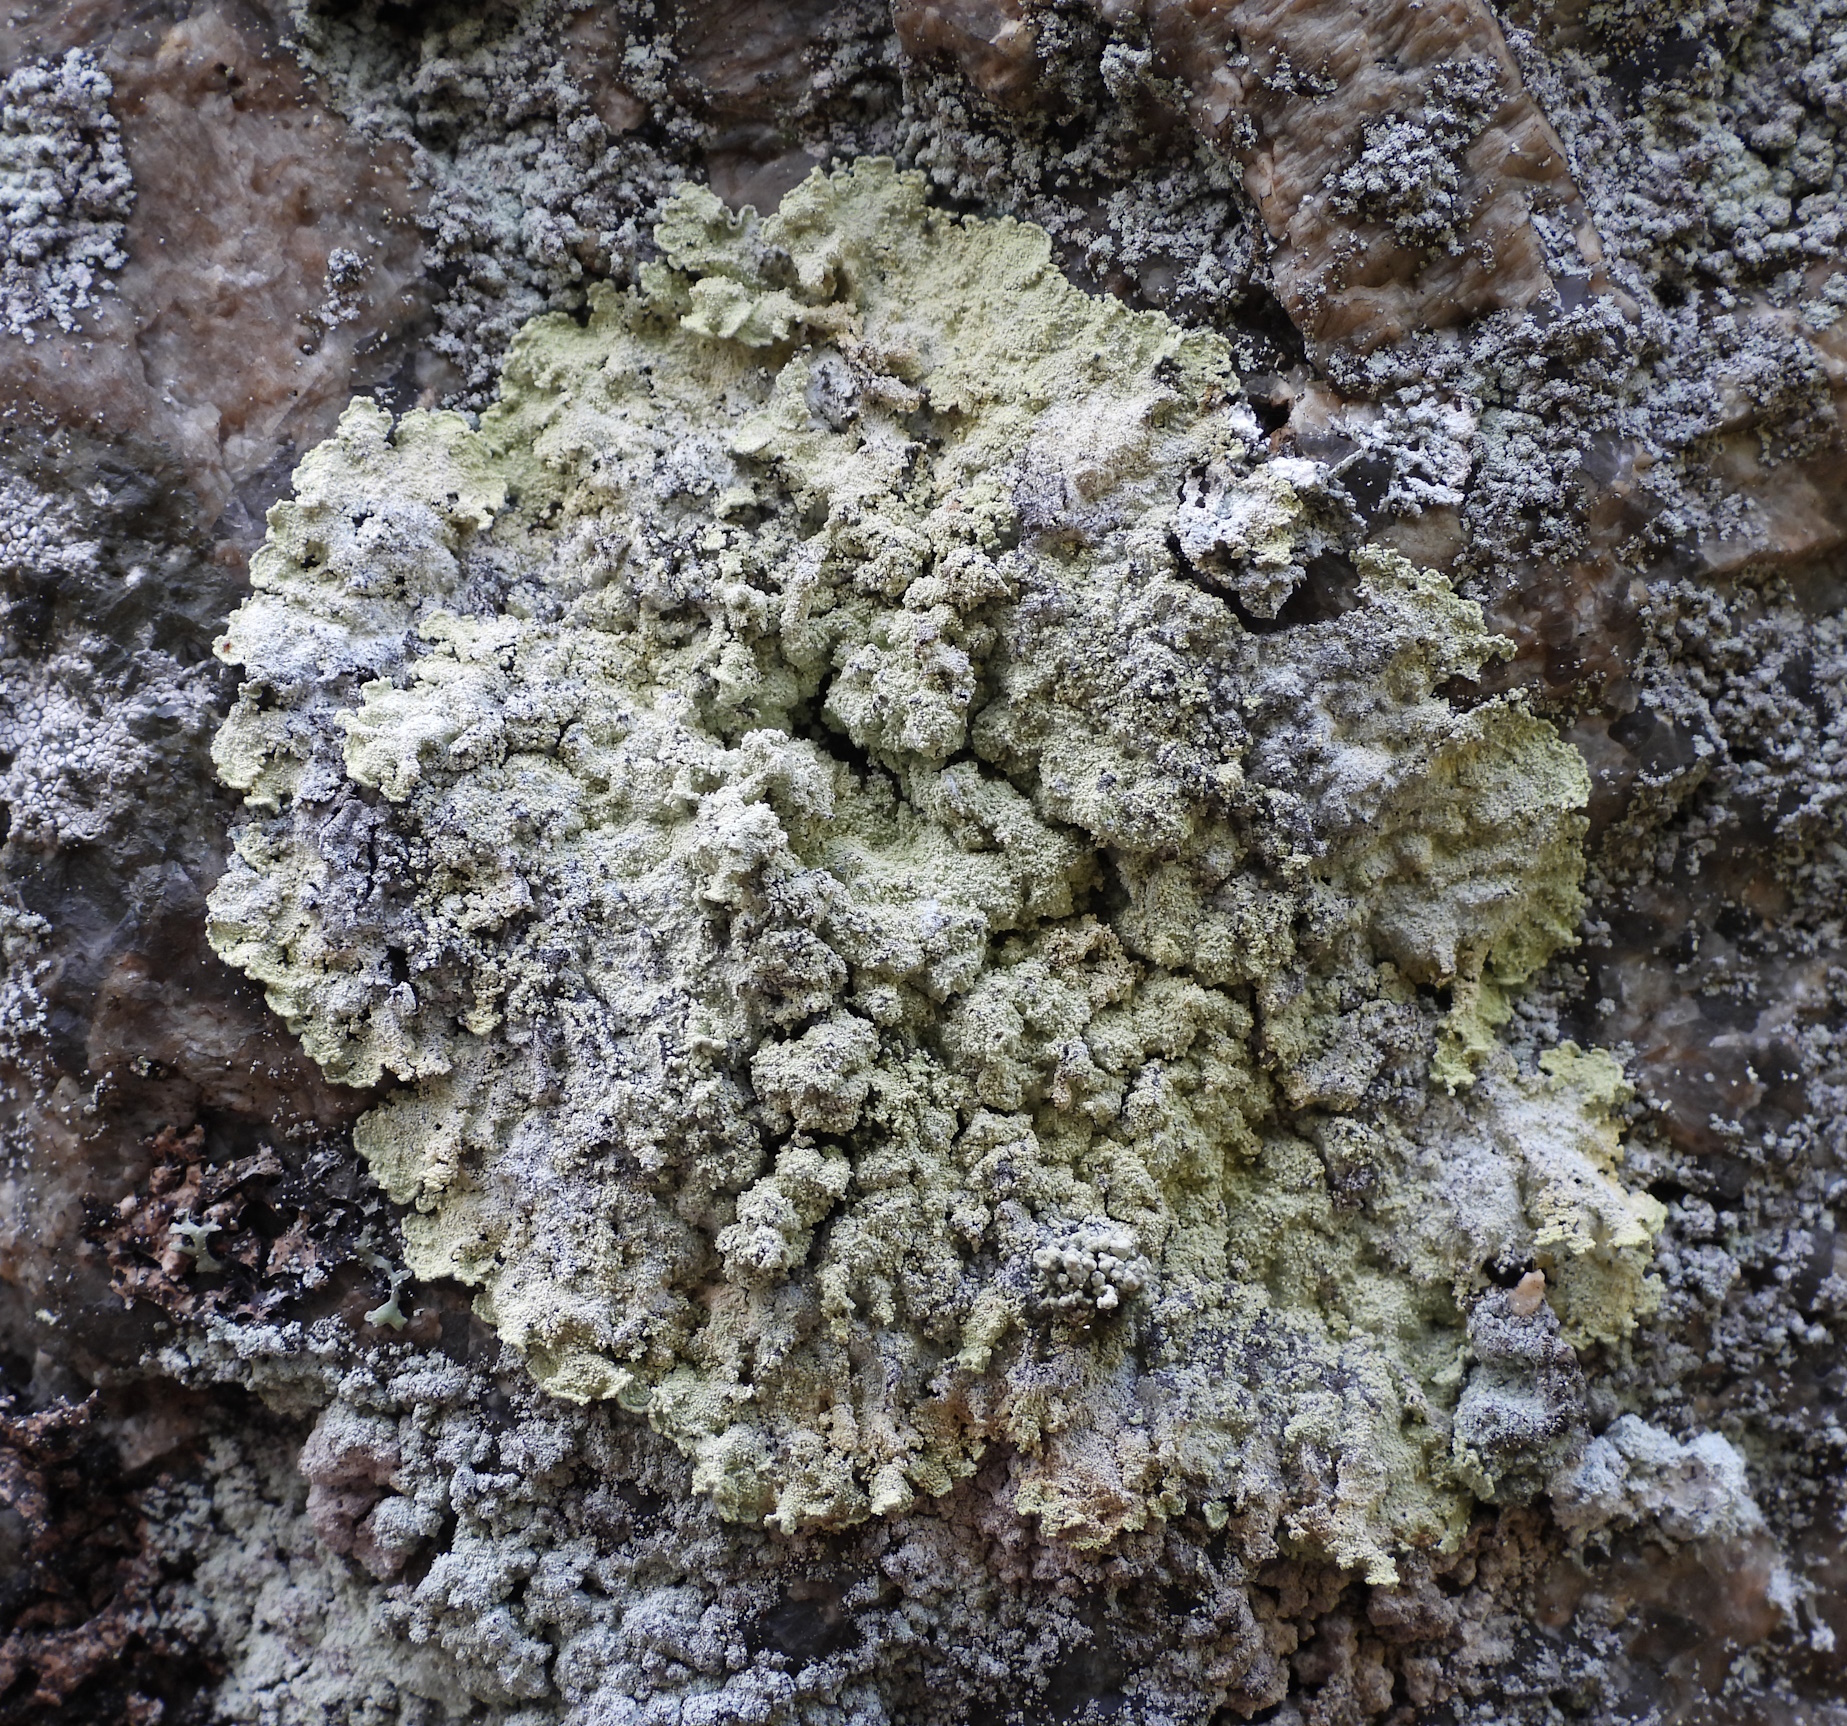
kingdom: Fungi
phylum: Ascomycota
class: Lecanoromycetes
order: Lecanorales
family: Stereocaulaceae
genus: Lepraria
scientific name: Lepraria membranacea
